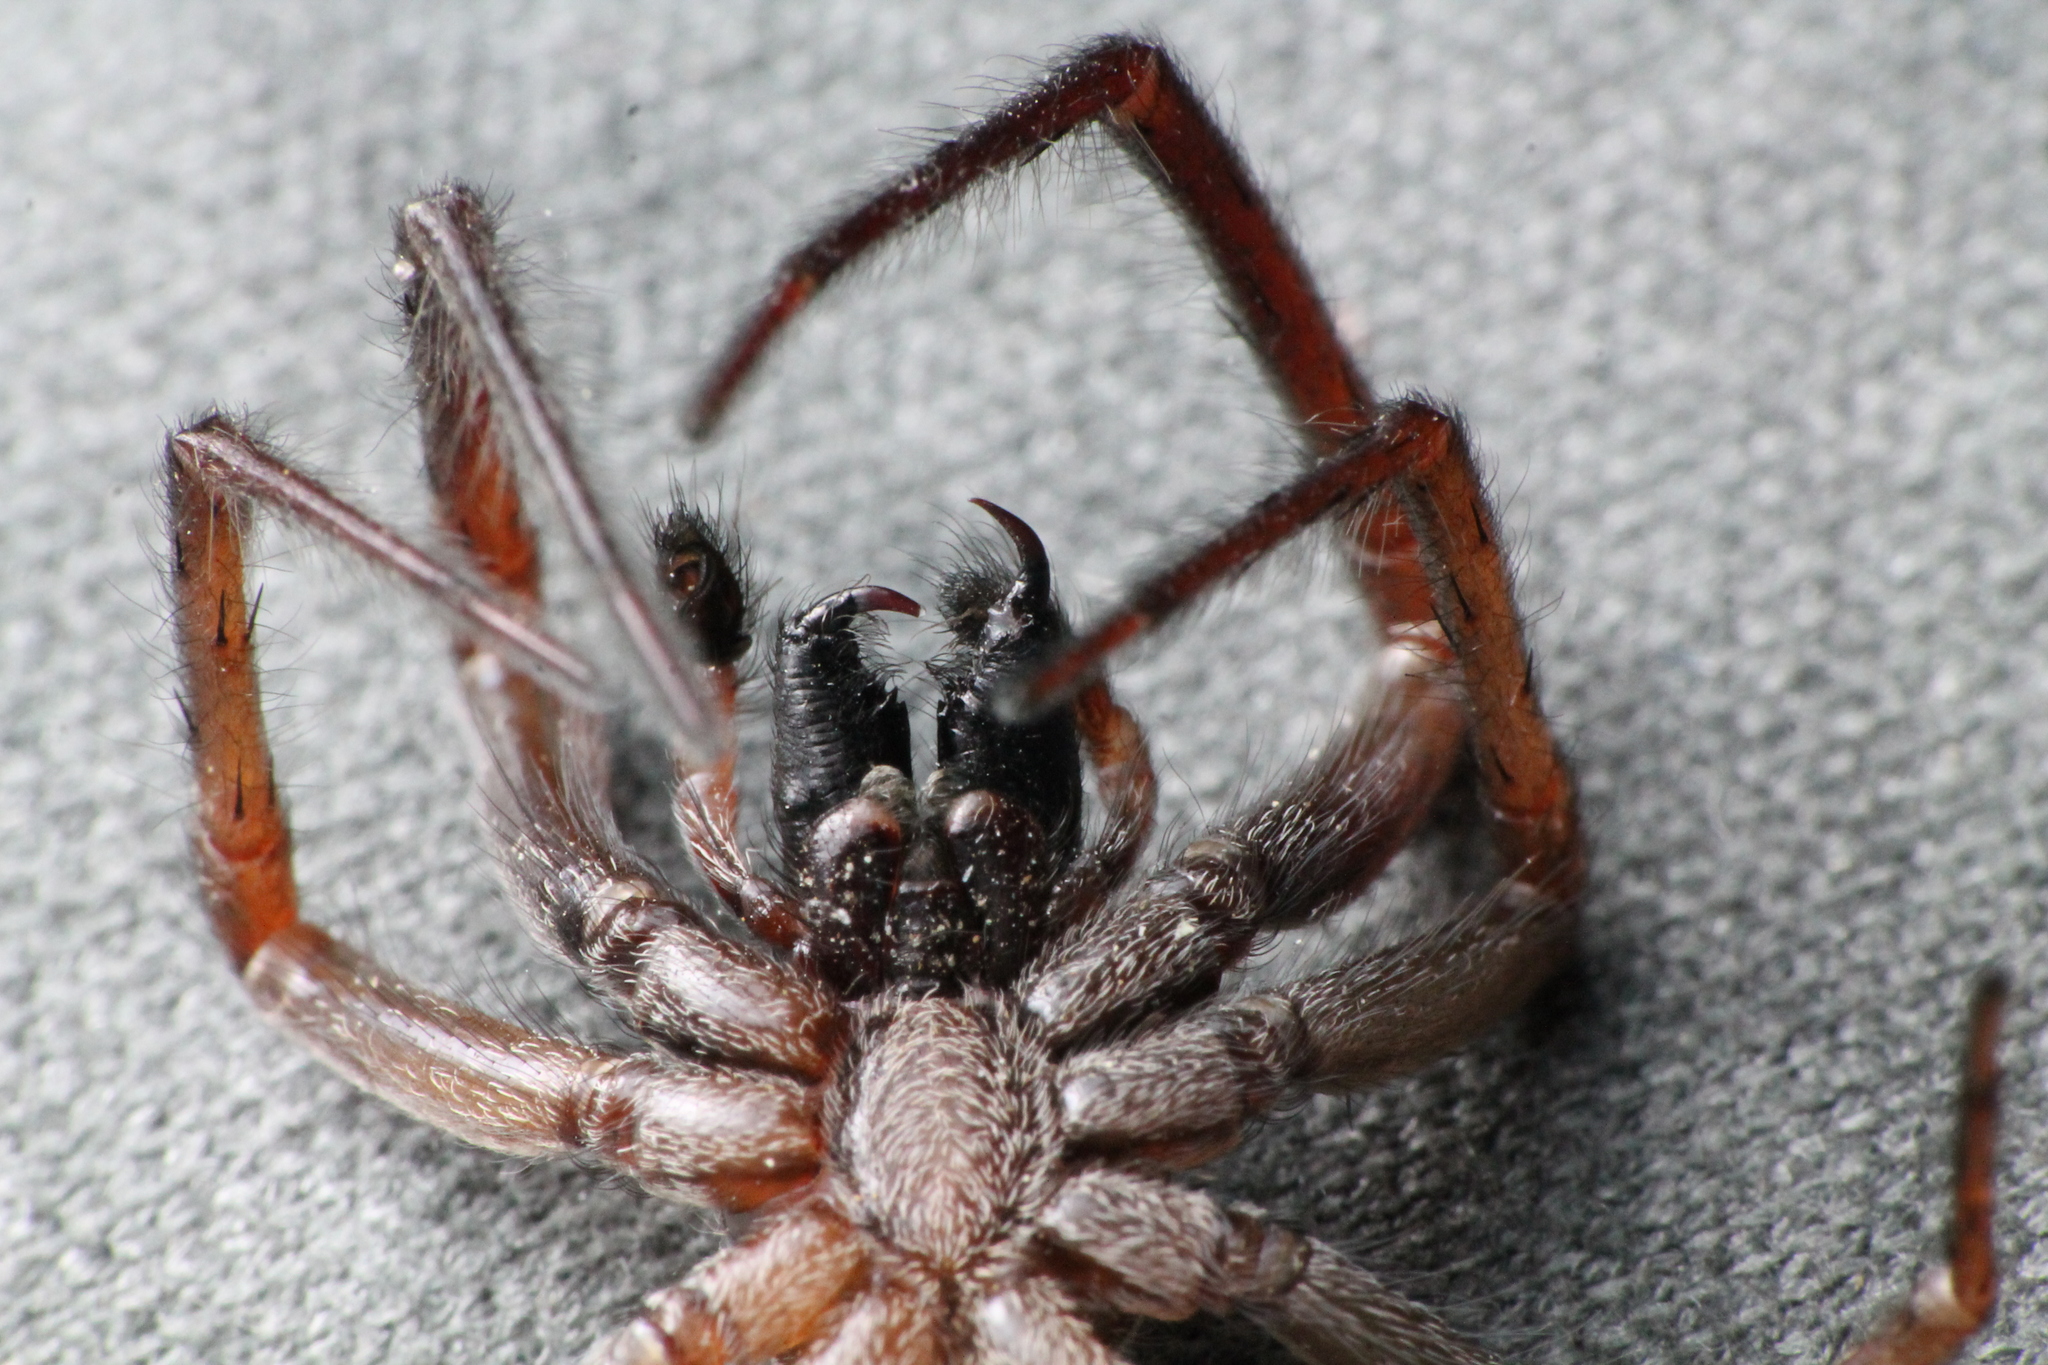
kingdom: Animalia
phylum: Arthropoda
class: Arachnida
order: Araneae
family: Desidae
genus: Badumna
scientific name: Badumna longinqua
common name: Gray house spider
